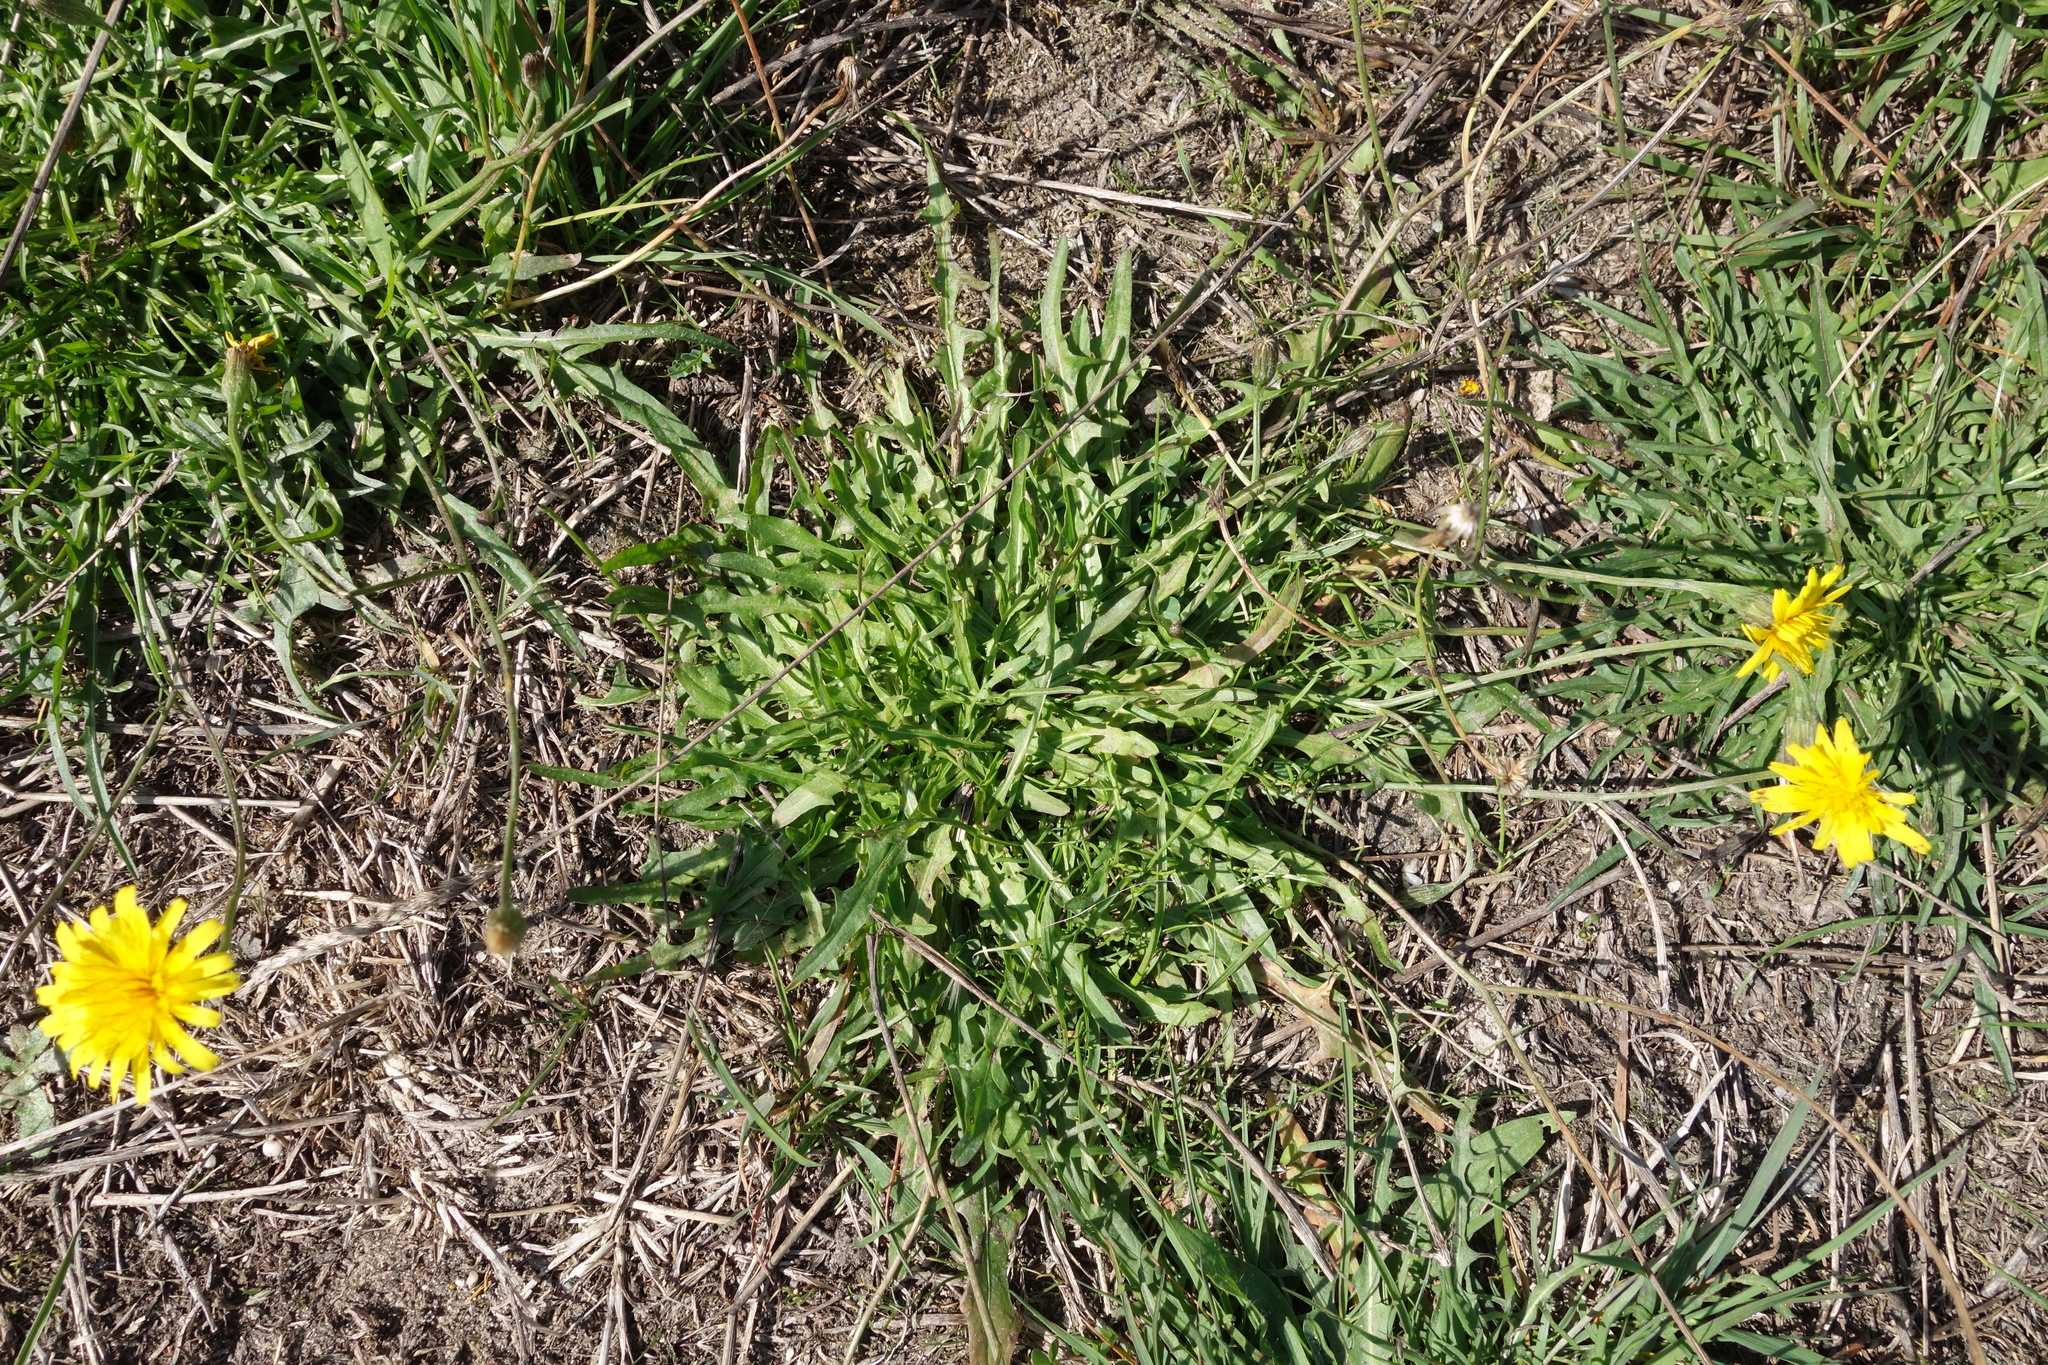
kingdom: Plantae
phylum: Tracheophyta
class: Magnoliopsida
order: Asterales
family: Asteraceae
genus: Scorzoneroides
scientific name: Scorzoneroides autumnalis
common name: Autumn hawkbit
